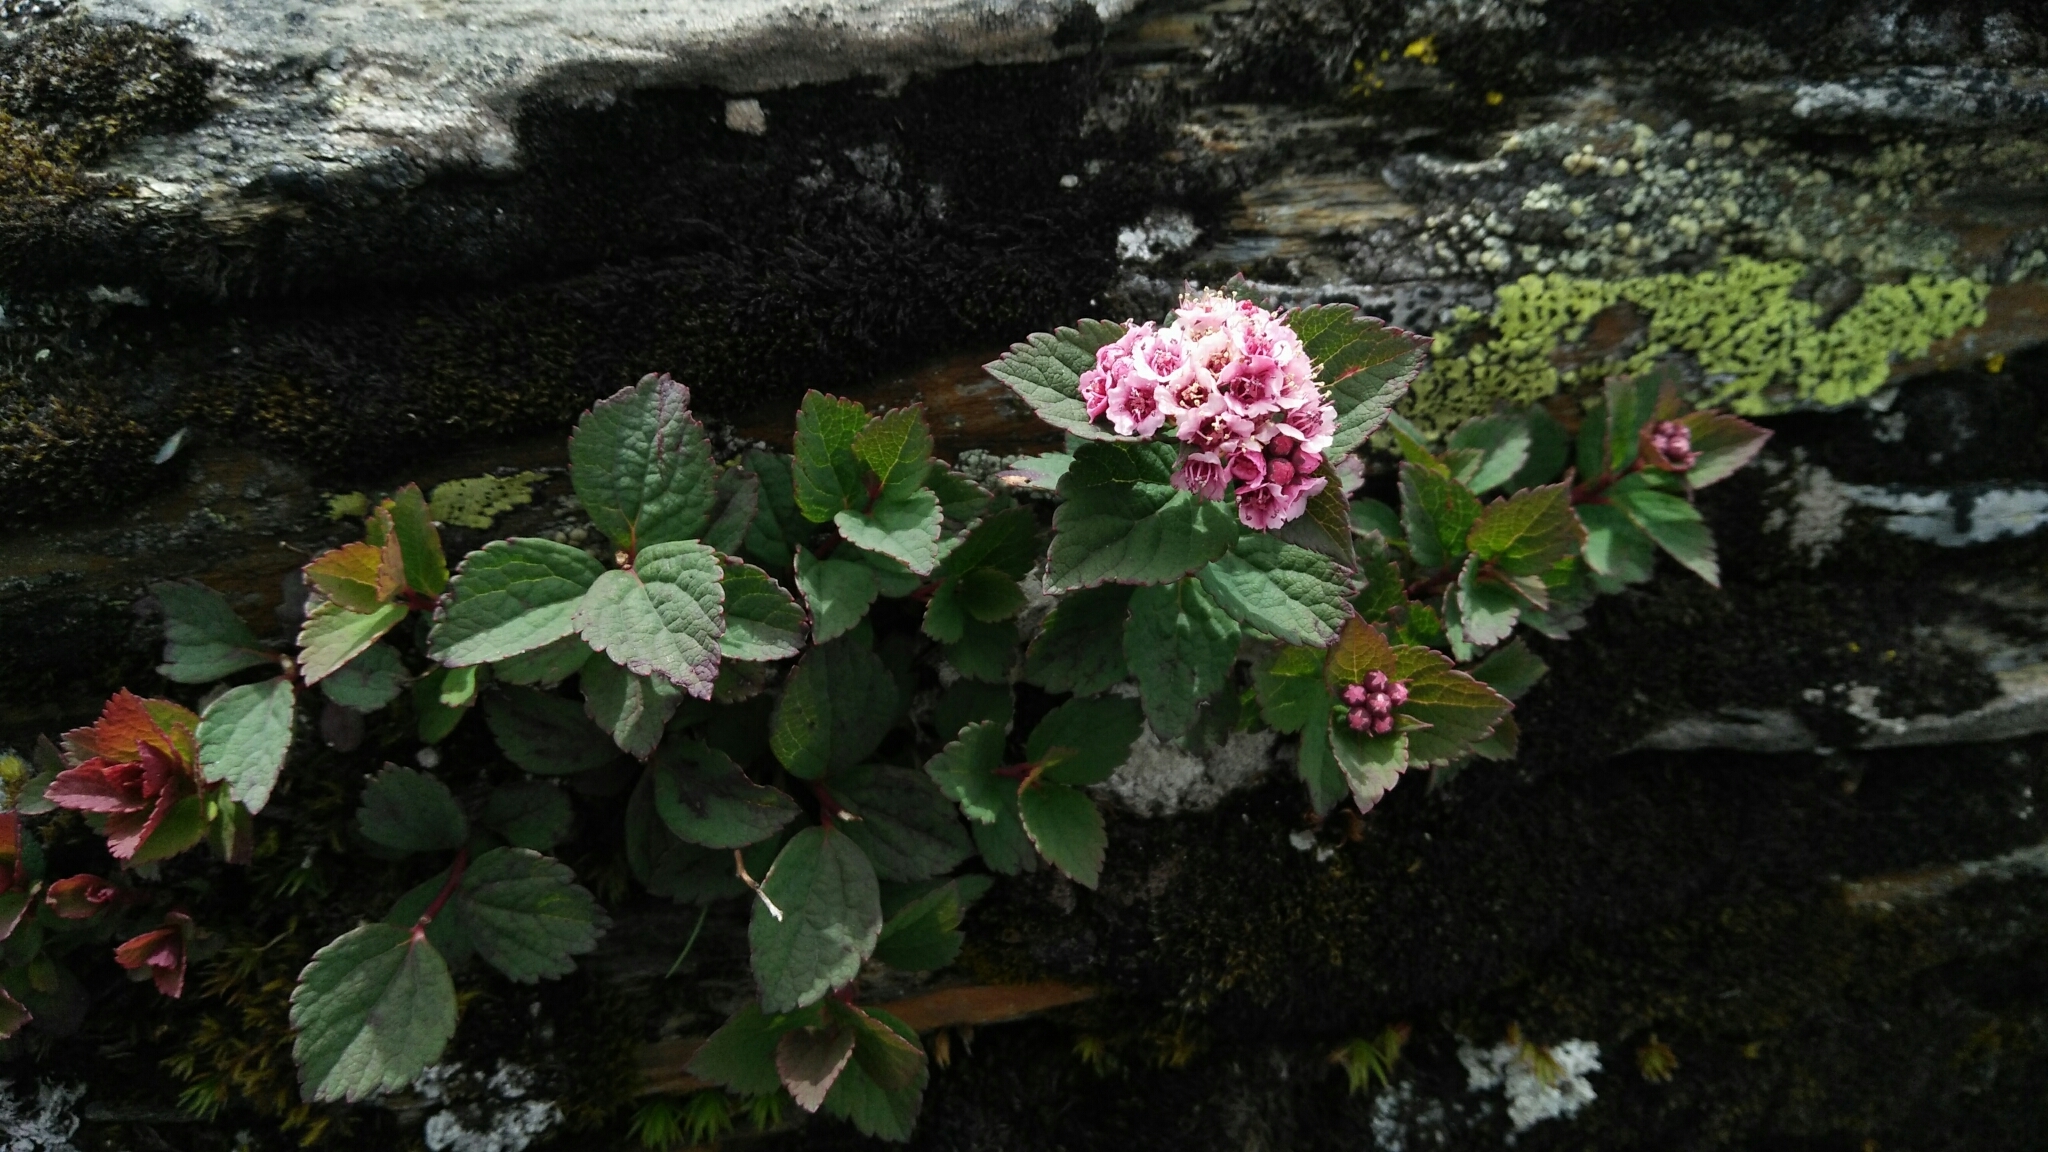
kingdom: Plantae
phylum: Tracheophyta
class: Magnoliopsida
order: Rosales
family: Rosaceae
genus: Spiraea
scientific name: Spiraea morrisonicola
